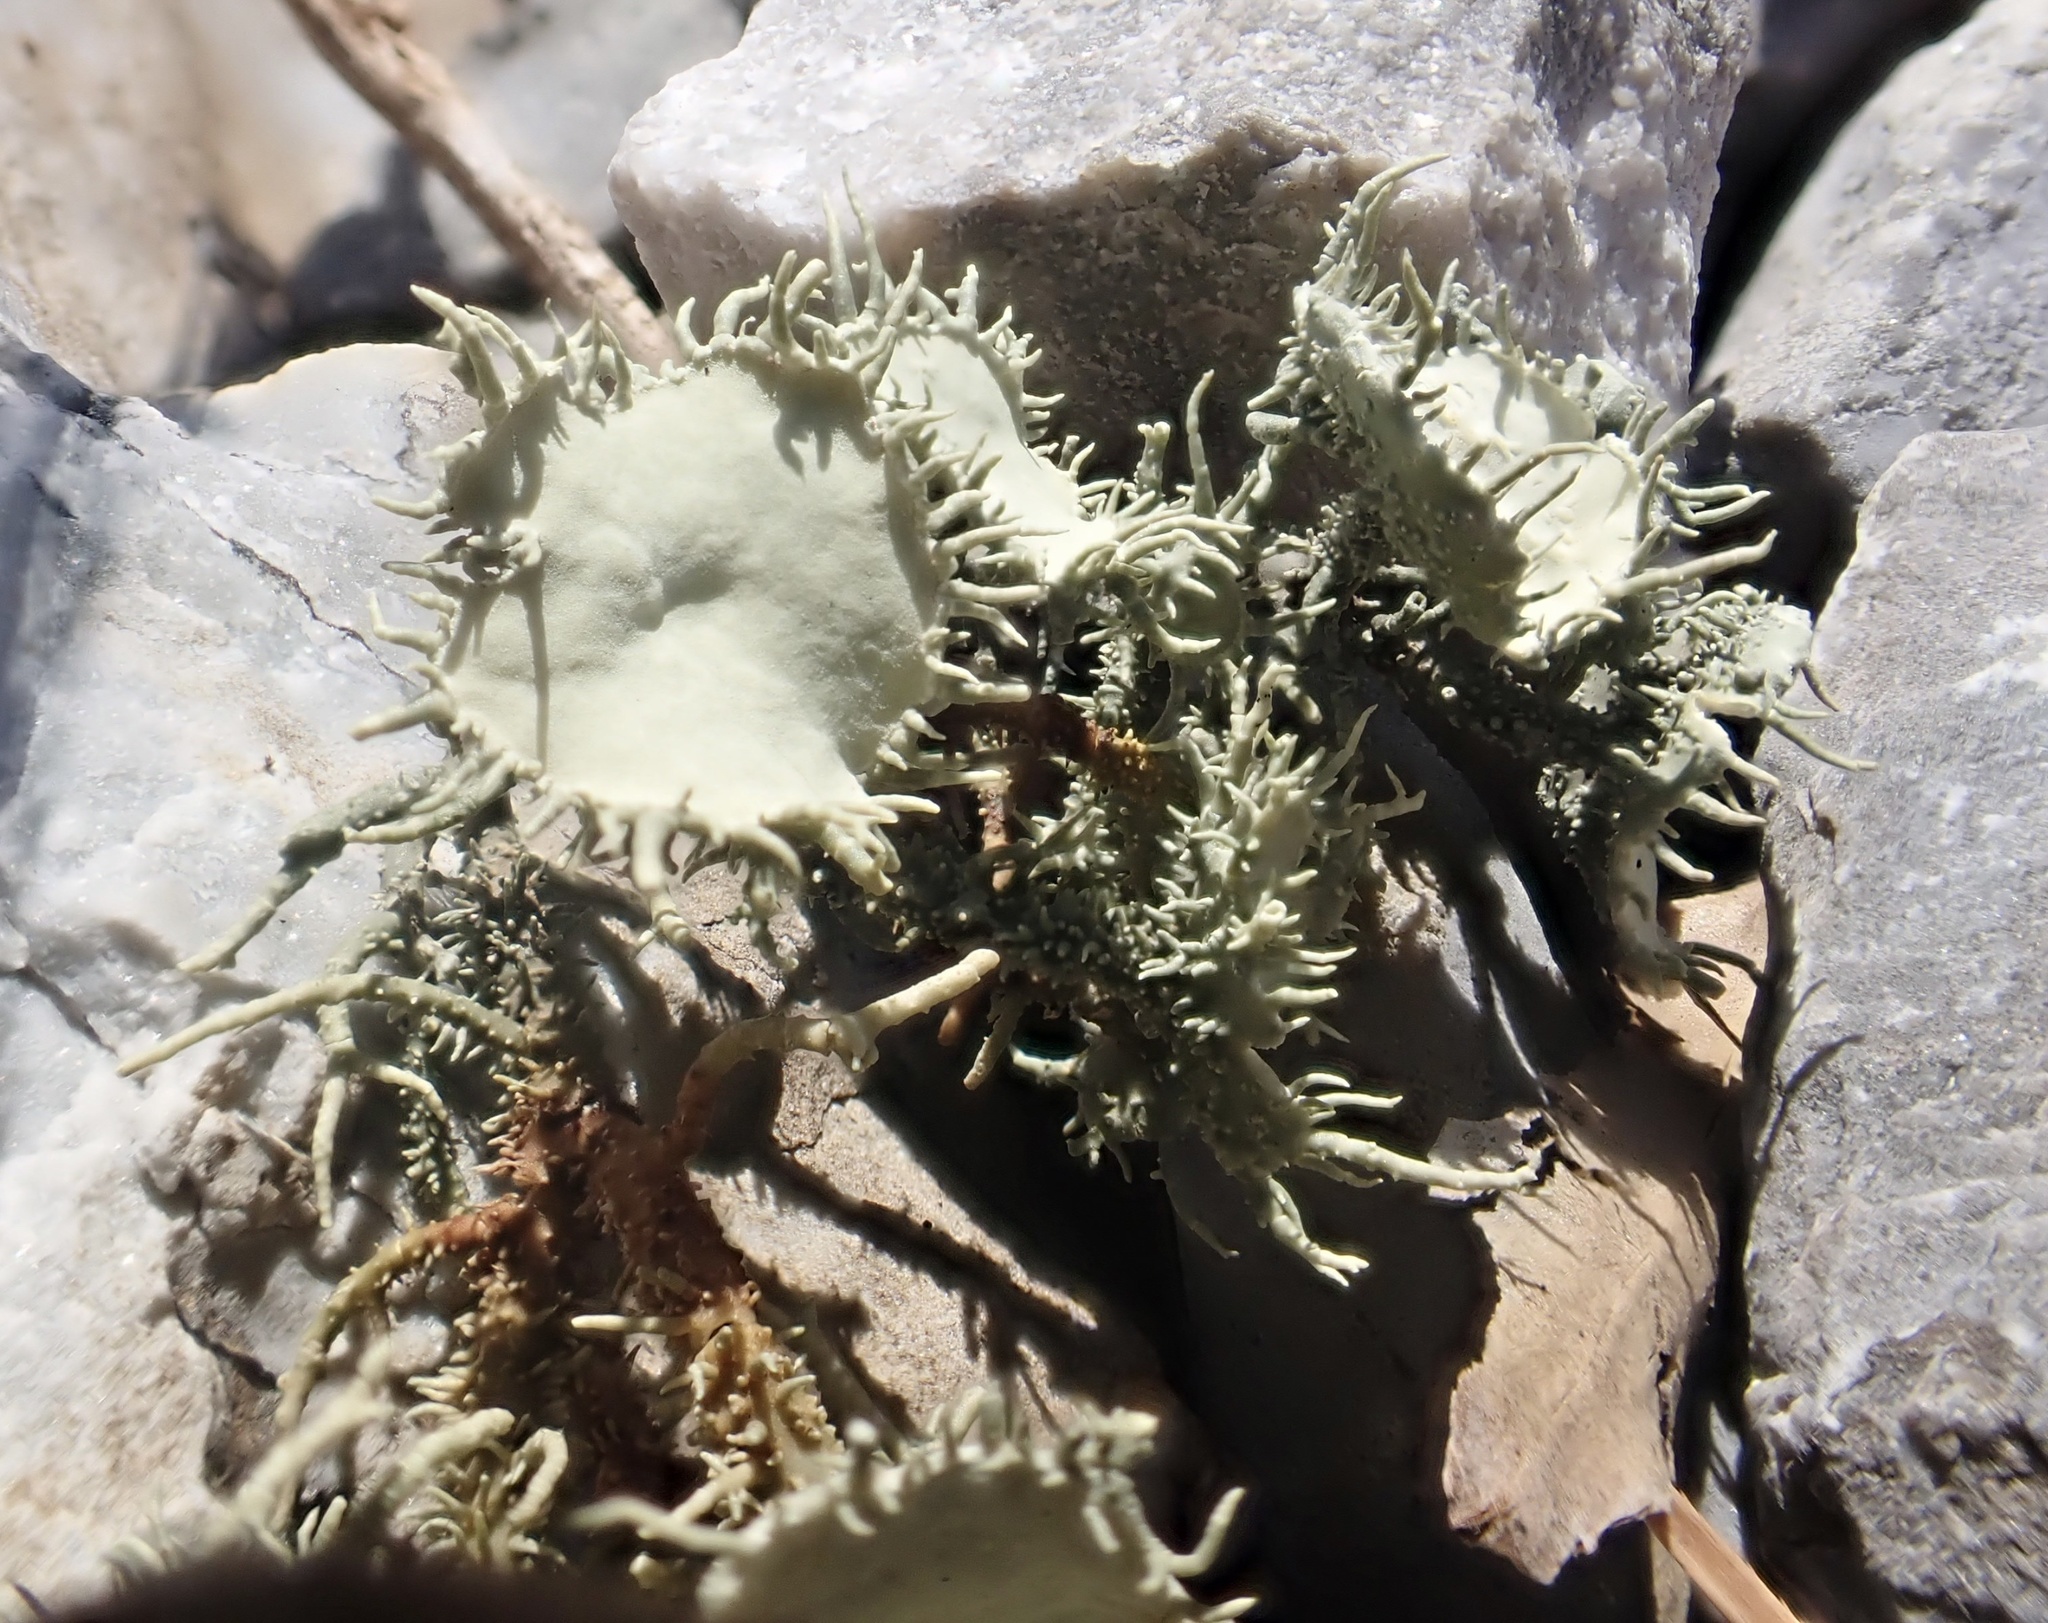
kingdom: Fungi
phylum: Ascomycota
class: Lecanoromycetes
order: Lecanorales
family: Parmeliaceae
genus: Usnea
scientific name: Usnea strigosa
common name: Bushy beard lichen
